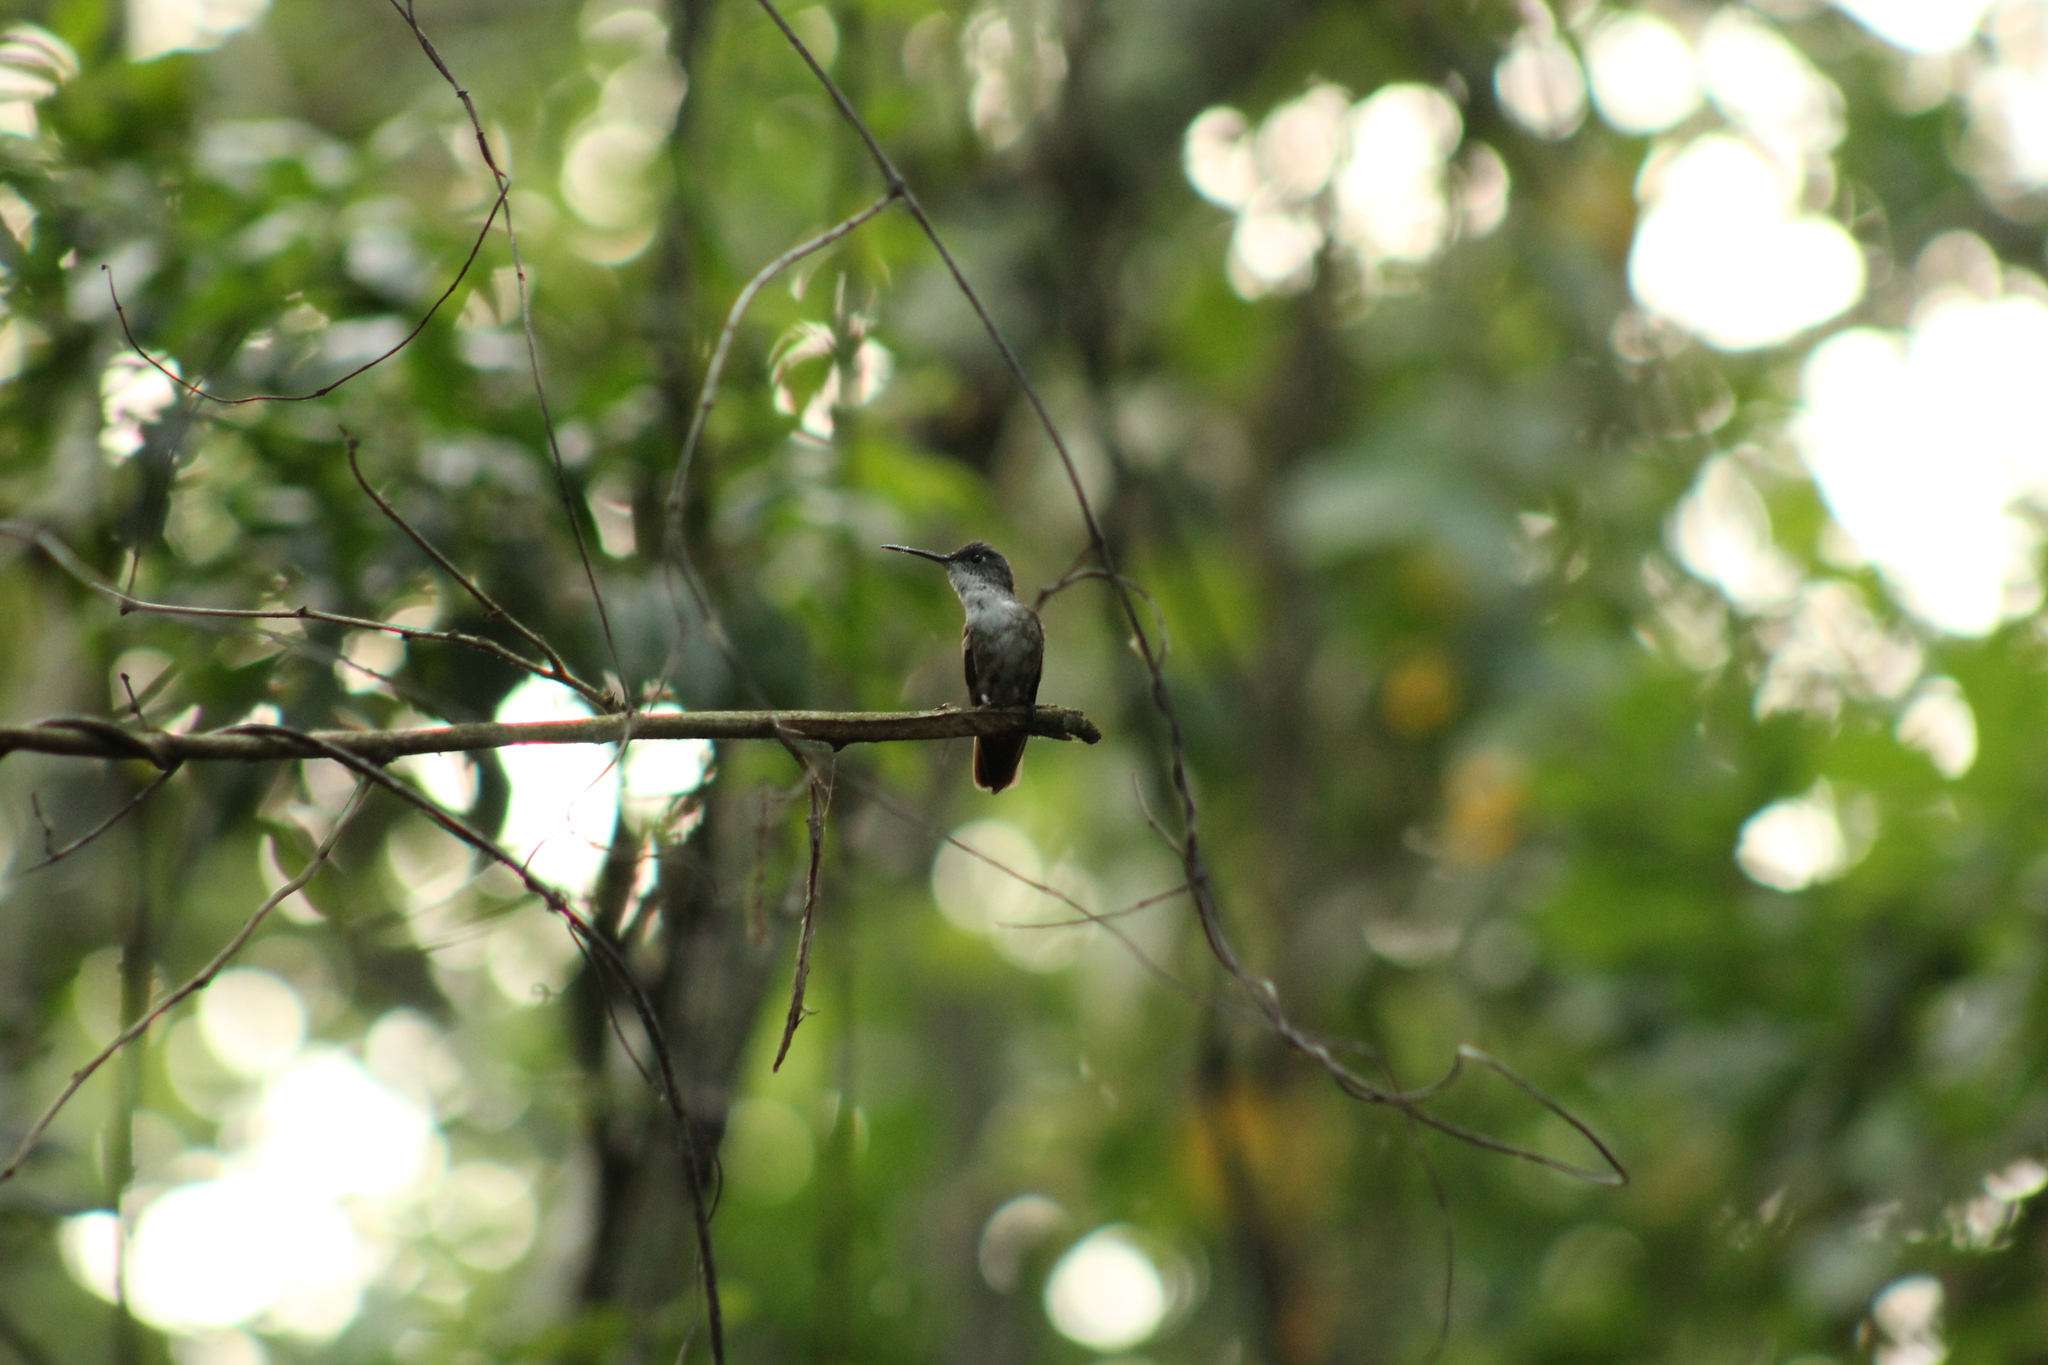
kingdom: Animalia
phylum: Chordata
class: Aves
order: Apodiformes
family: Trochilidae
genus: Saucerottia
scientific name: Saucerottia cyanocephala
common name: Azure-crowned hummingbird
